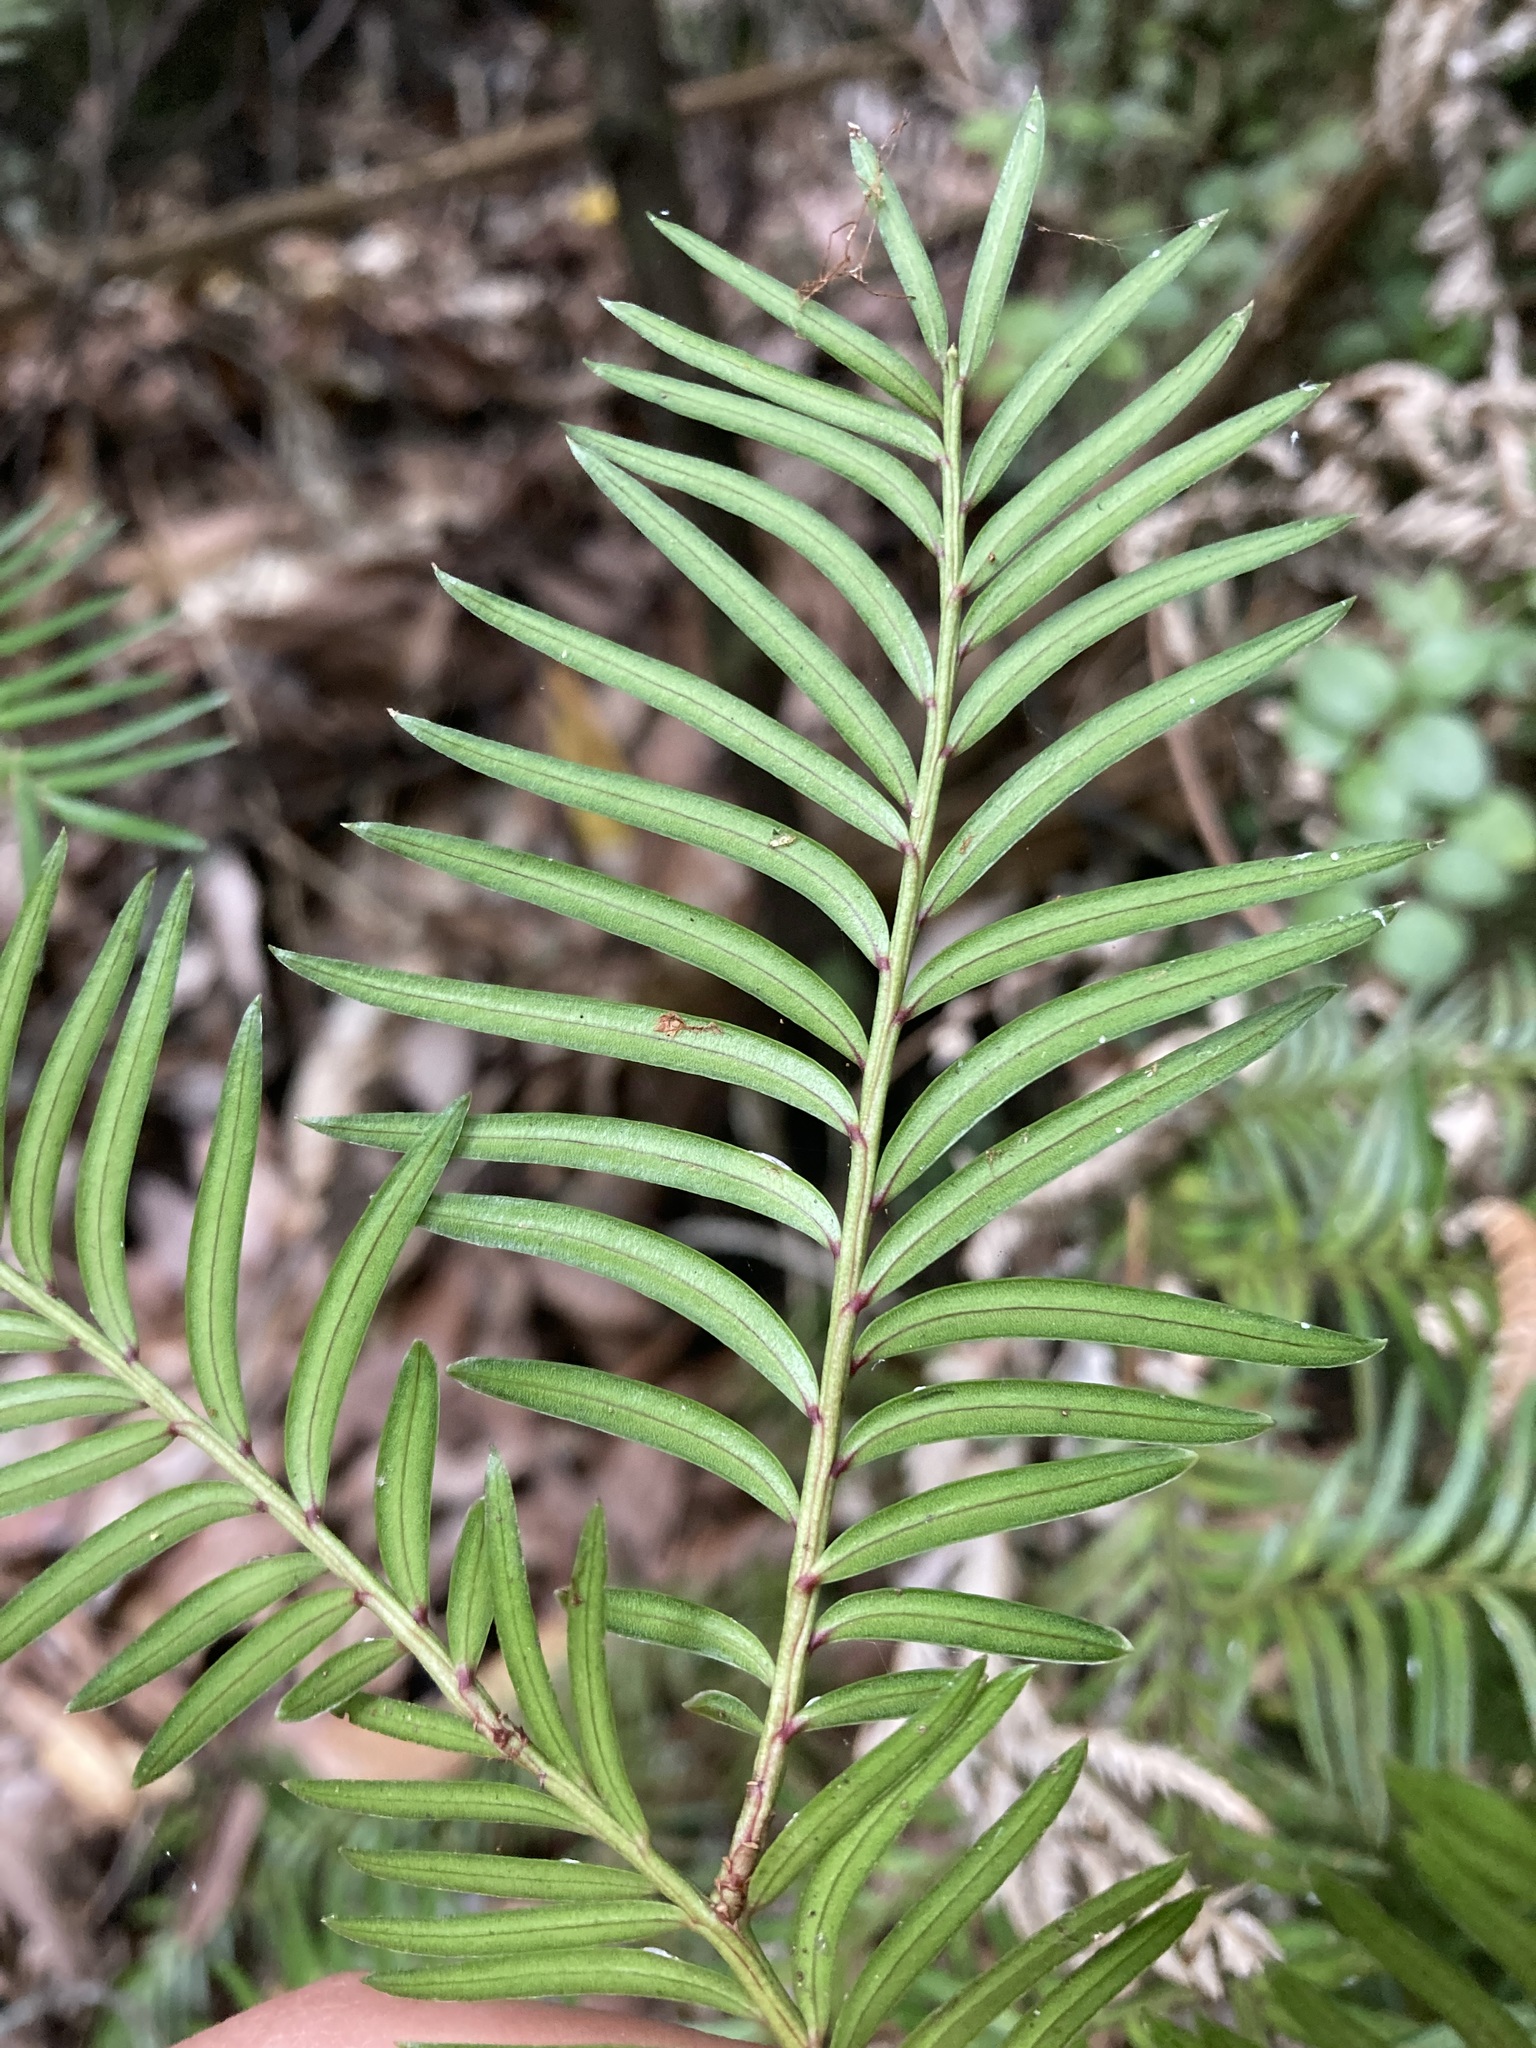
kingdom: Plantae
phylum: Tracheophyta
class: Pinopsida
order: Pinales
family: Podocarpaceae
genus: Prumnopitys
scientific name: Prumnopitys ferruginea
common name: Brown pine
